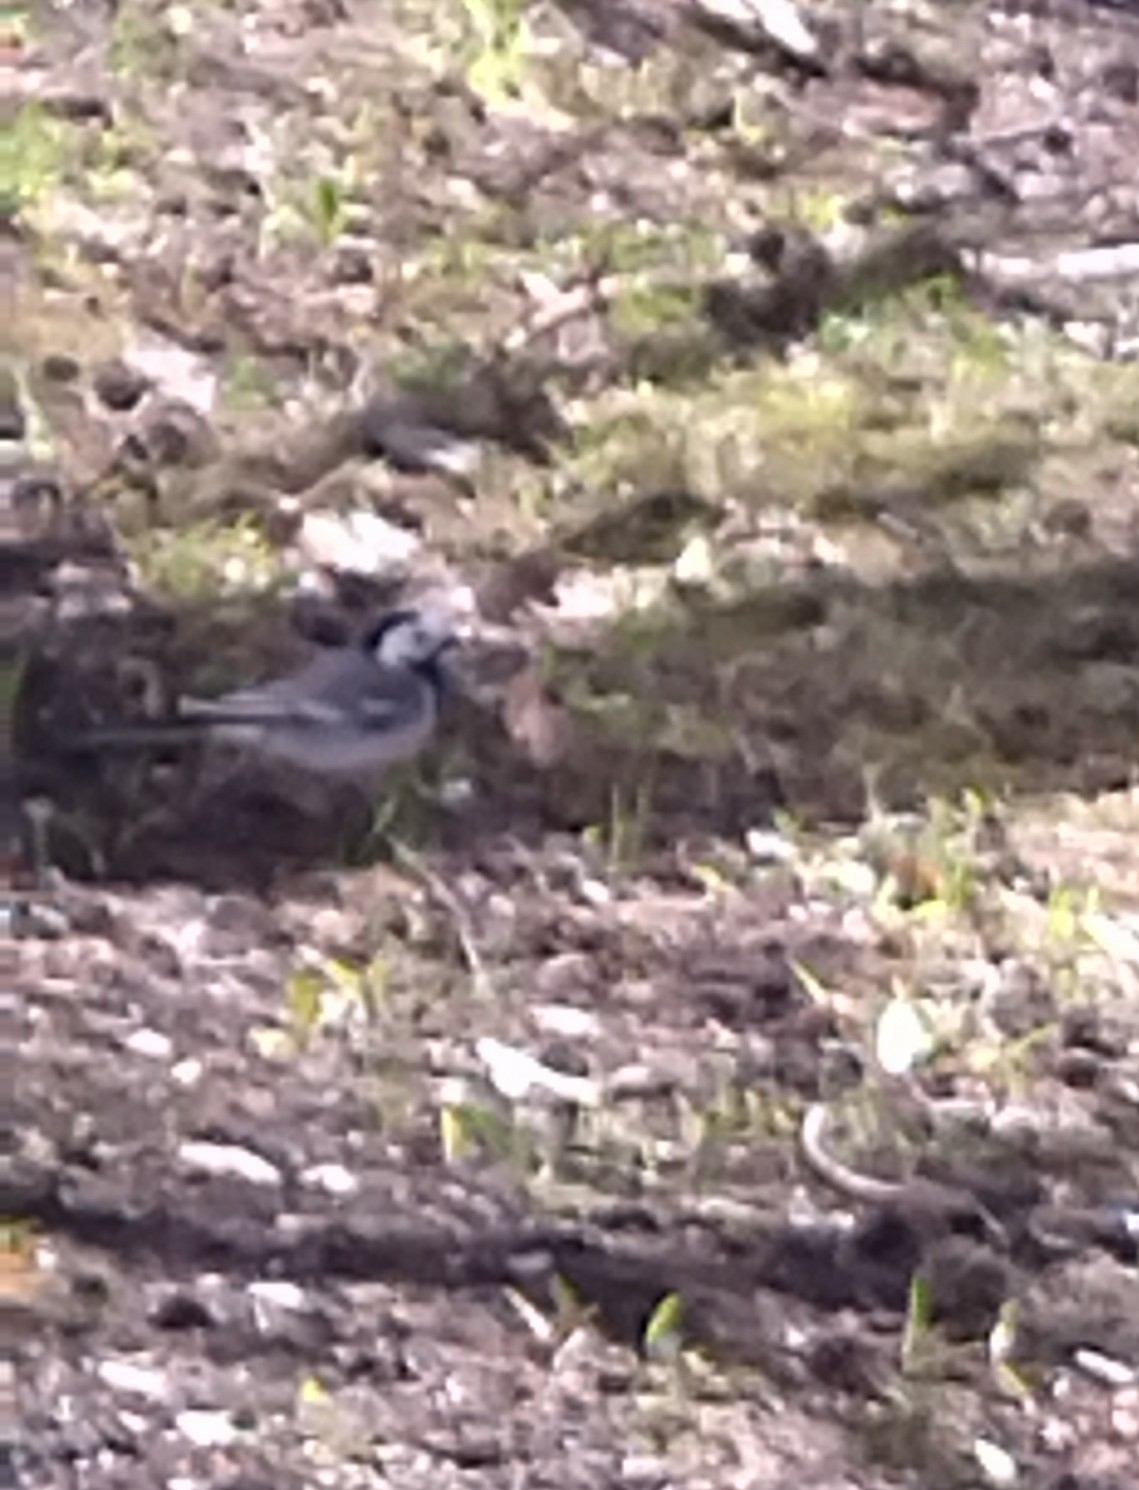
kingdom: Animalia
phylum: Chordata
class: Aves
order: Passeriformes
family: Motacillidae
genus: Motacilla
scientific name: Motacilla alba
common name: White wagtail
